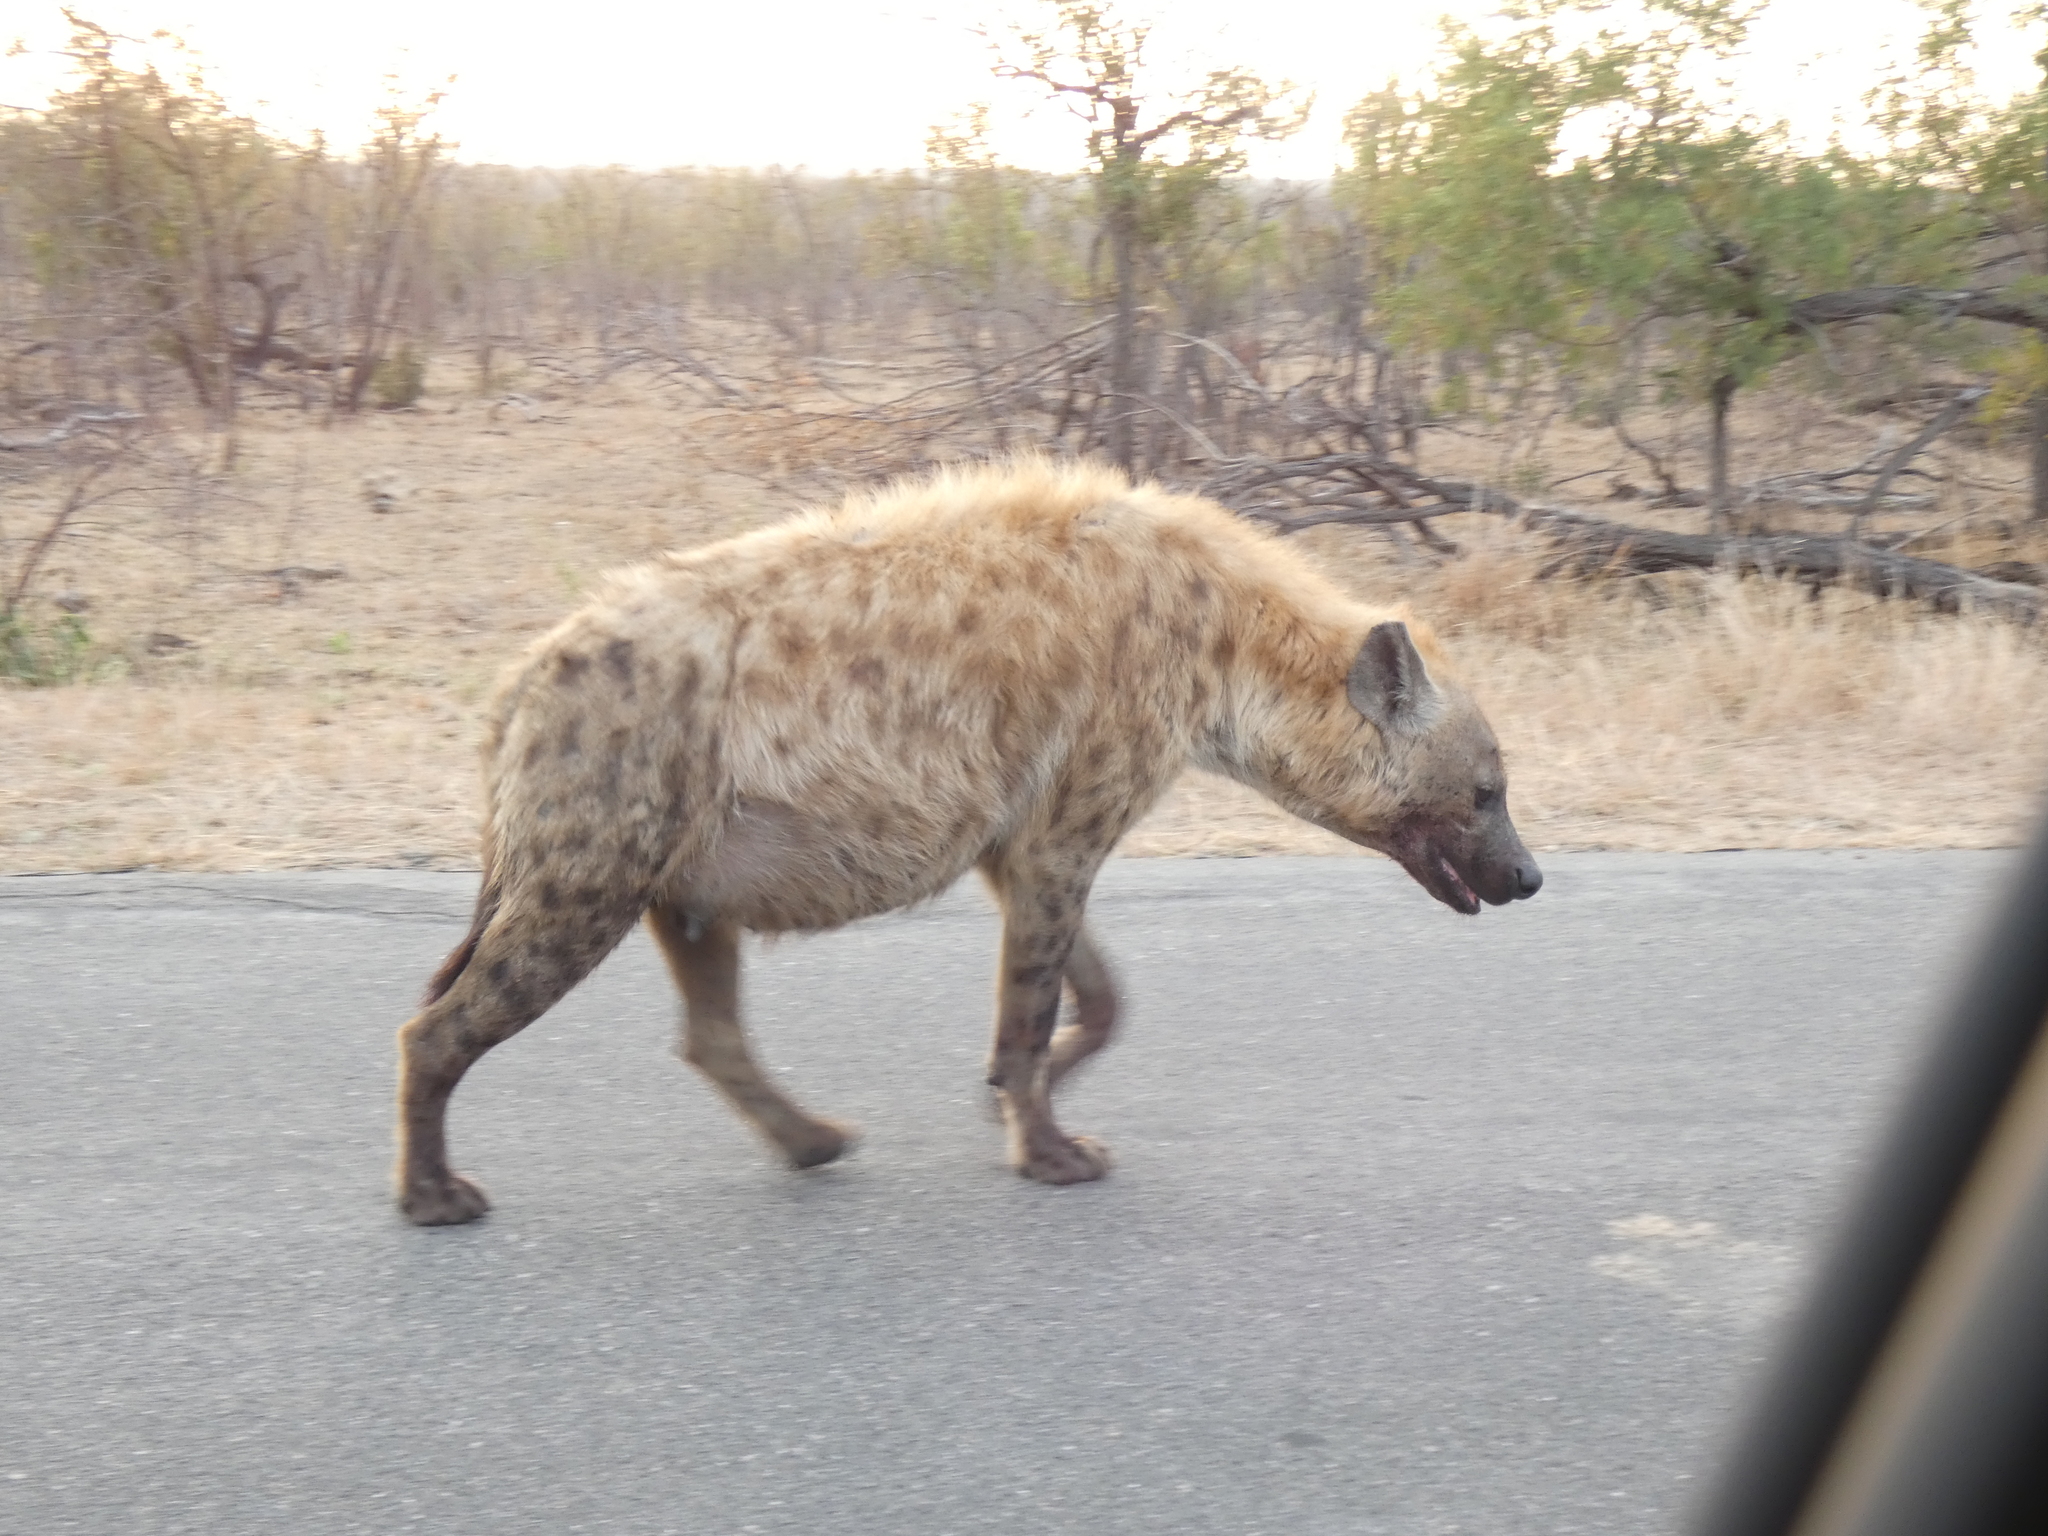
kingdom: Animalia
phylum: Chordata
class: Mammalia
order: Carnivora
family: Hyaenidae
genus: Crocuta
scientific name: Crocuta crocuta
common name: Spotted hyaena
